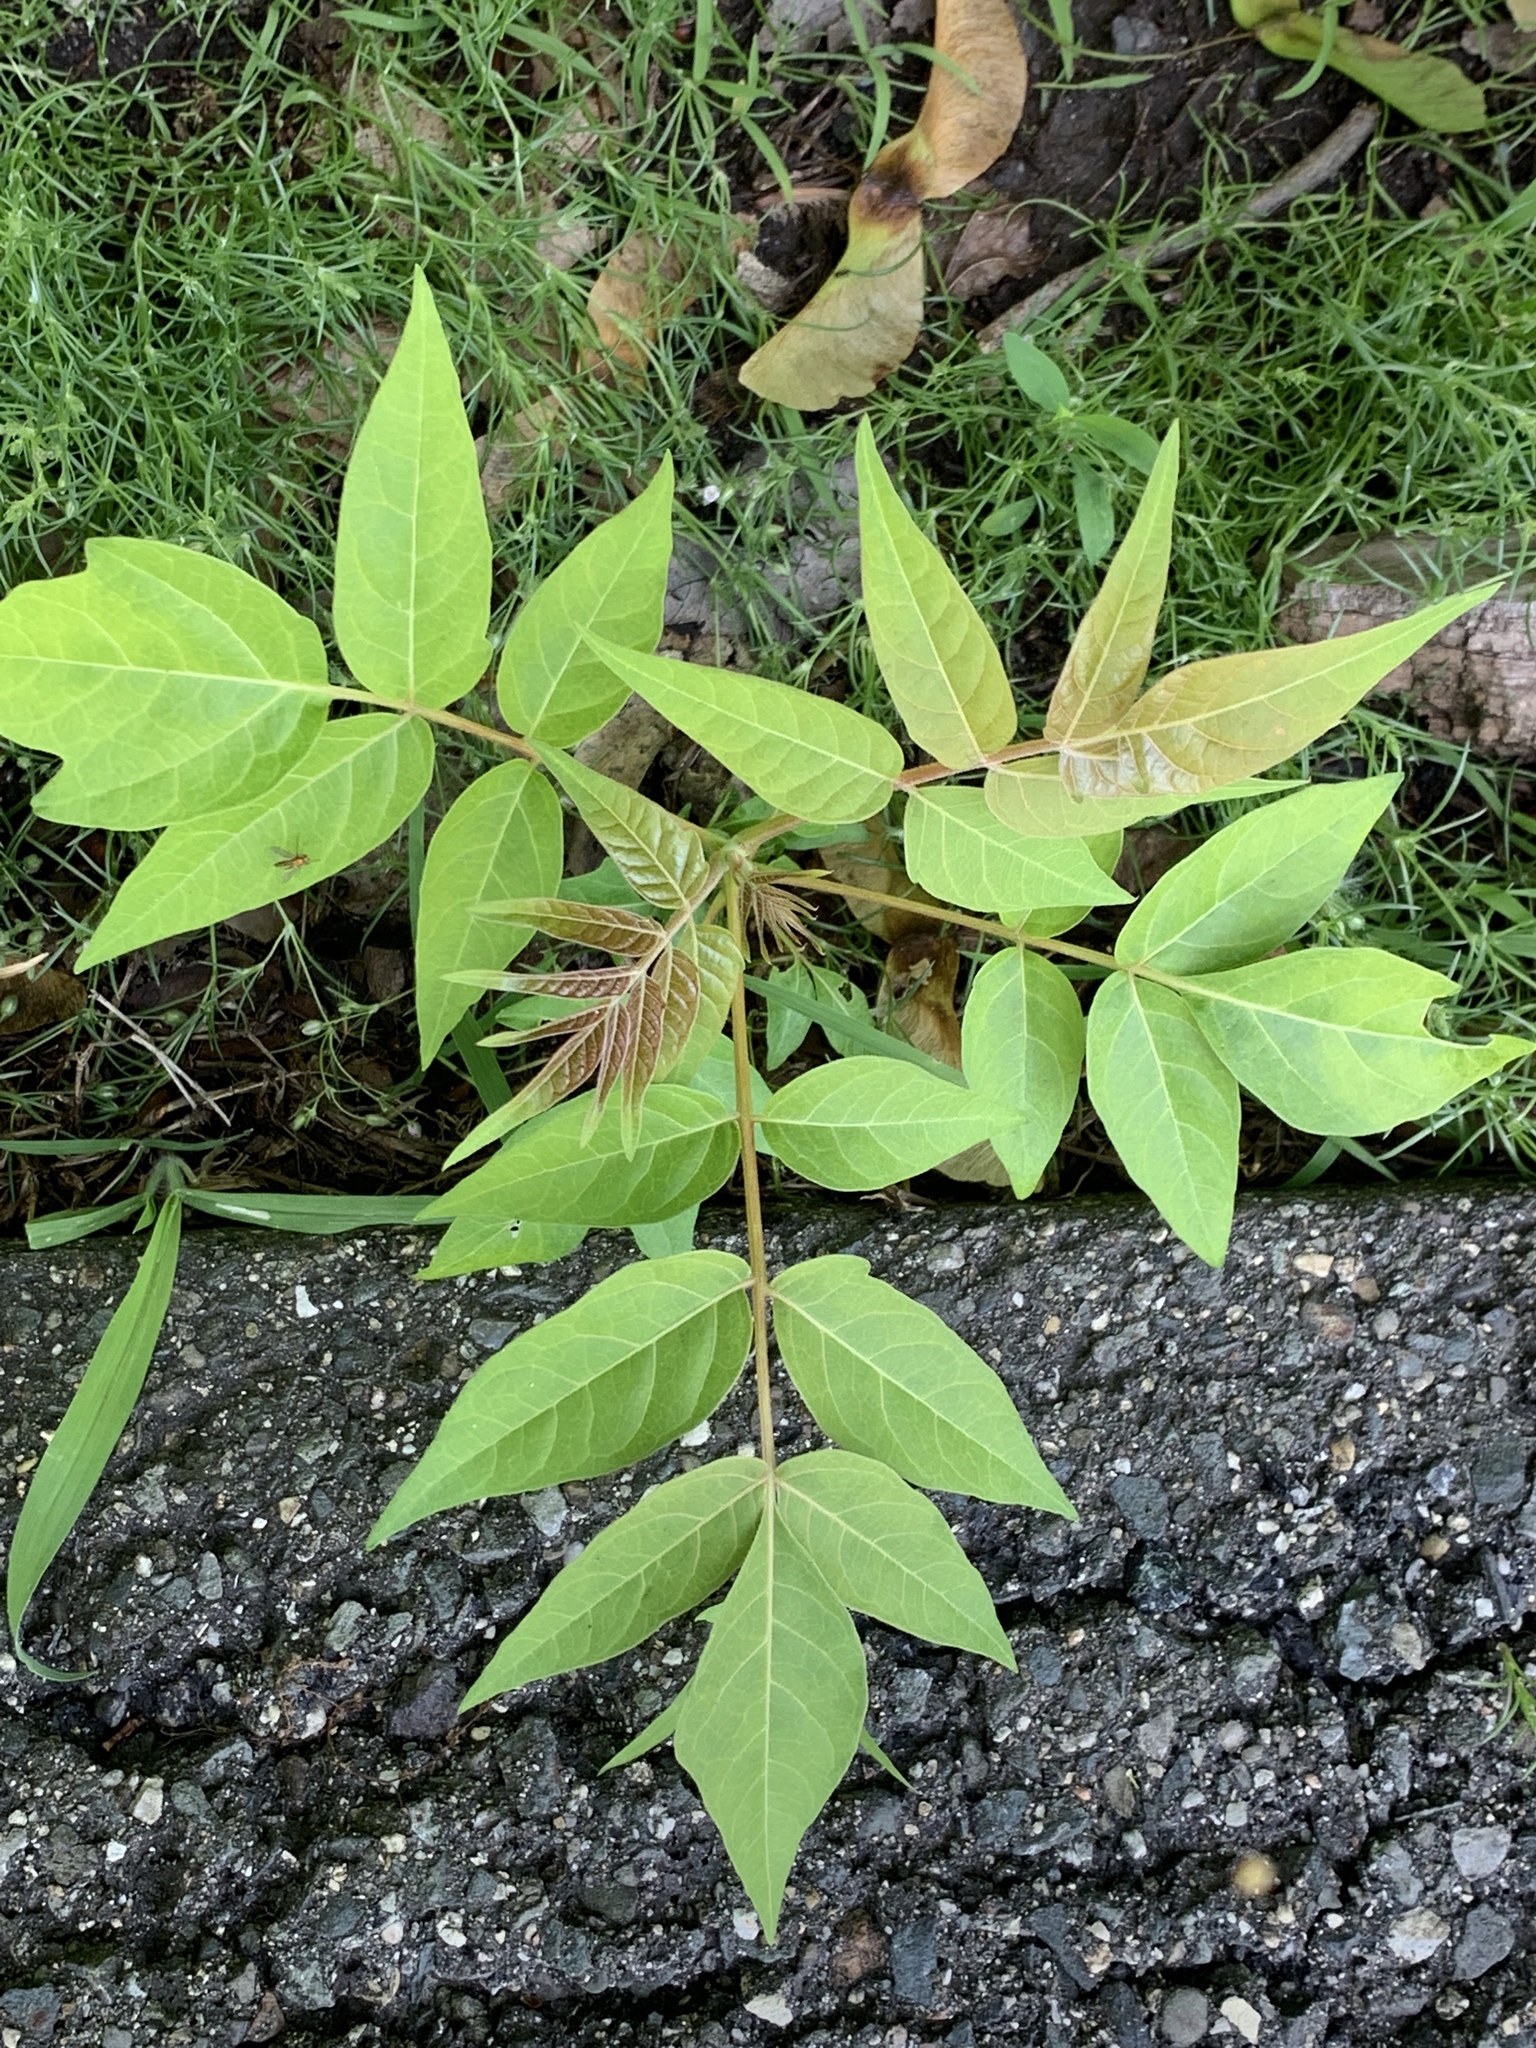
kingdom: Plantae
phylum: Tracheophyta
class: Magnoliopsida
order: Sapindales
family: Simaroubaceae
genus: Ailanthus
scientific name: Ailanthus altissima
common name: Tree-of-heaven
